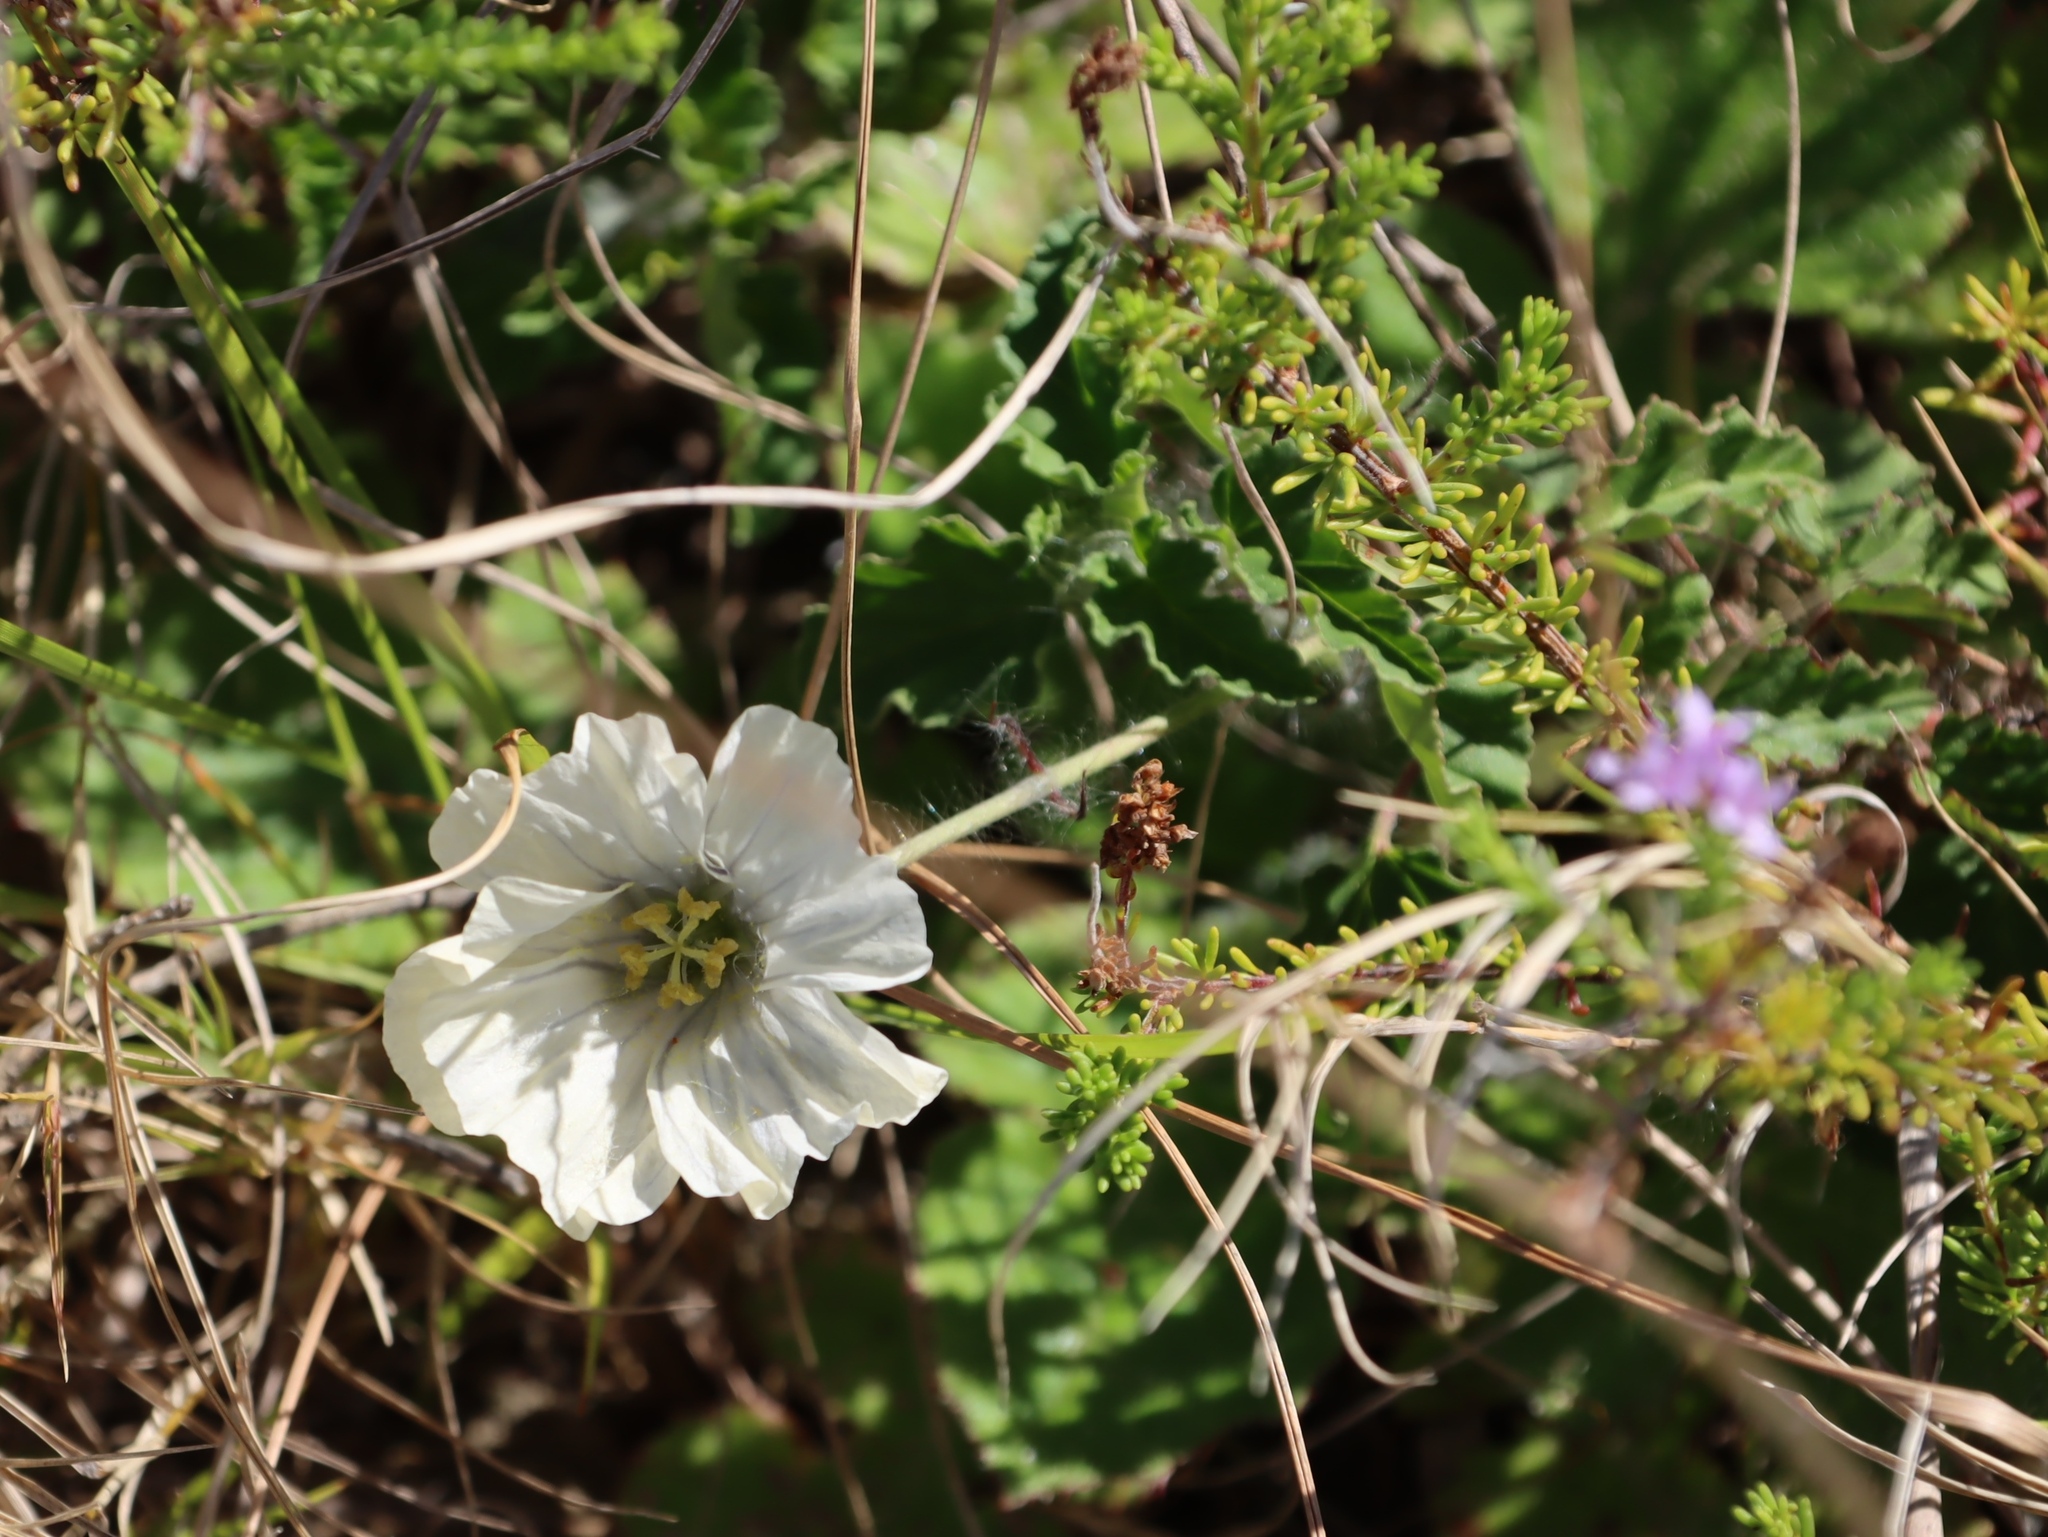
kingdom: Plantae
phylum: Tracheophyta
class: Magnoliopsida
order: Geraniales
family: Geraniaceae
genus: Monsonia
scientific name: Monsonia emarginata
